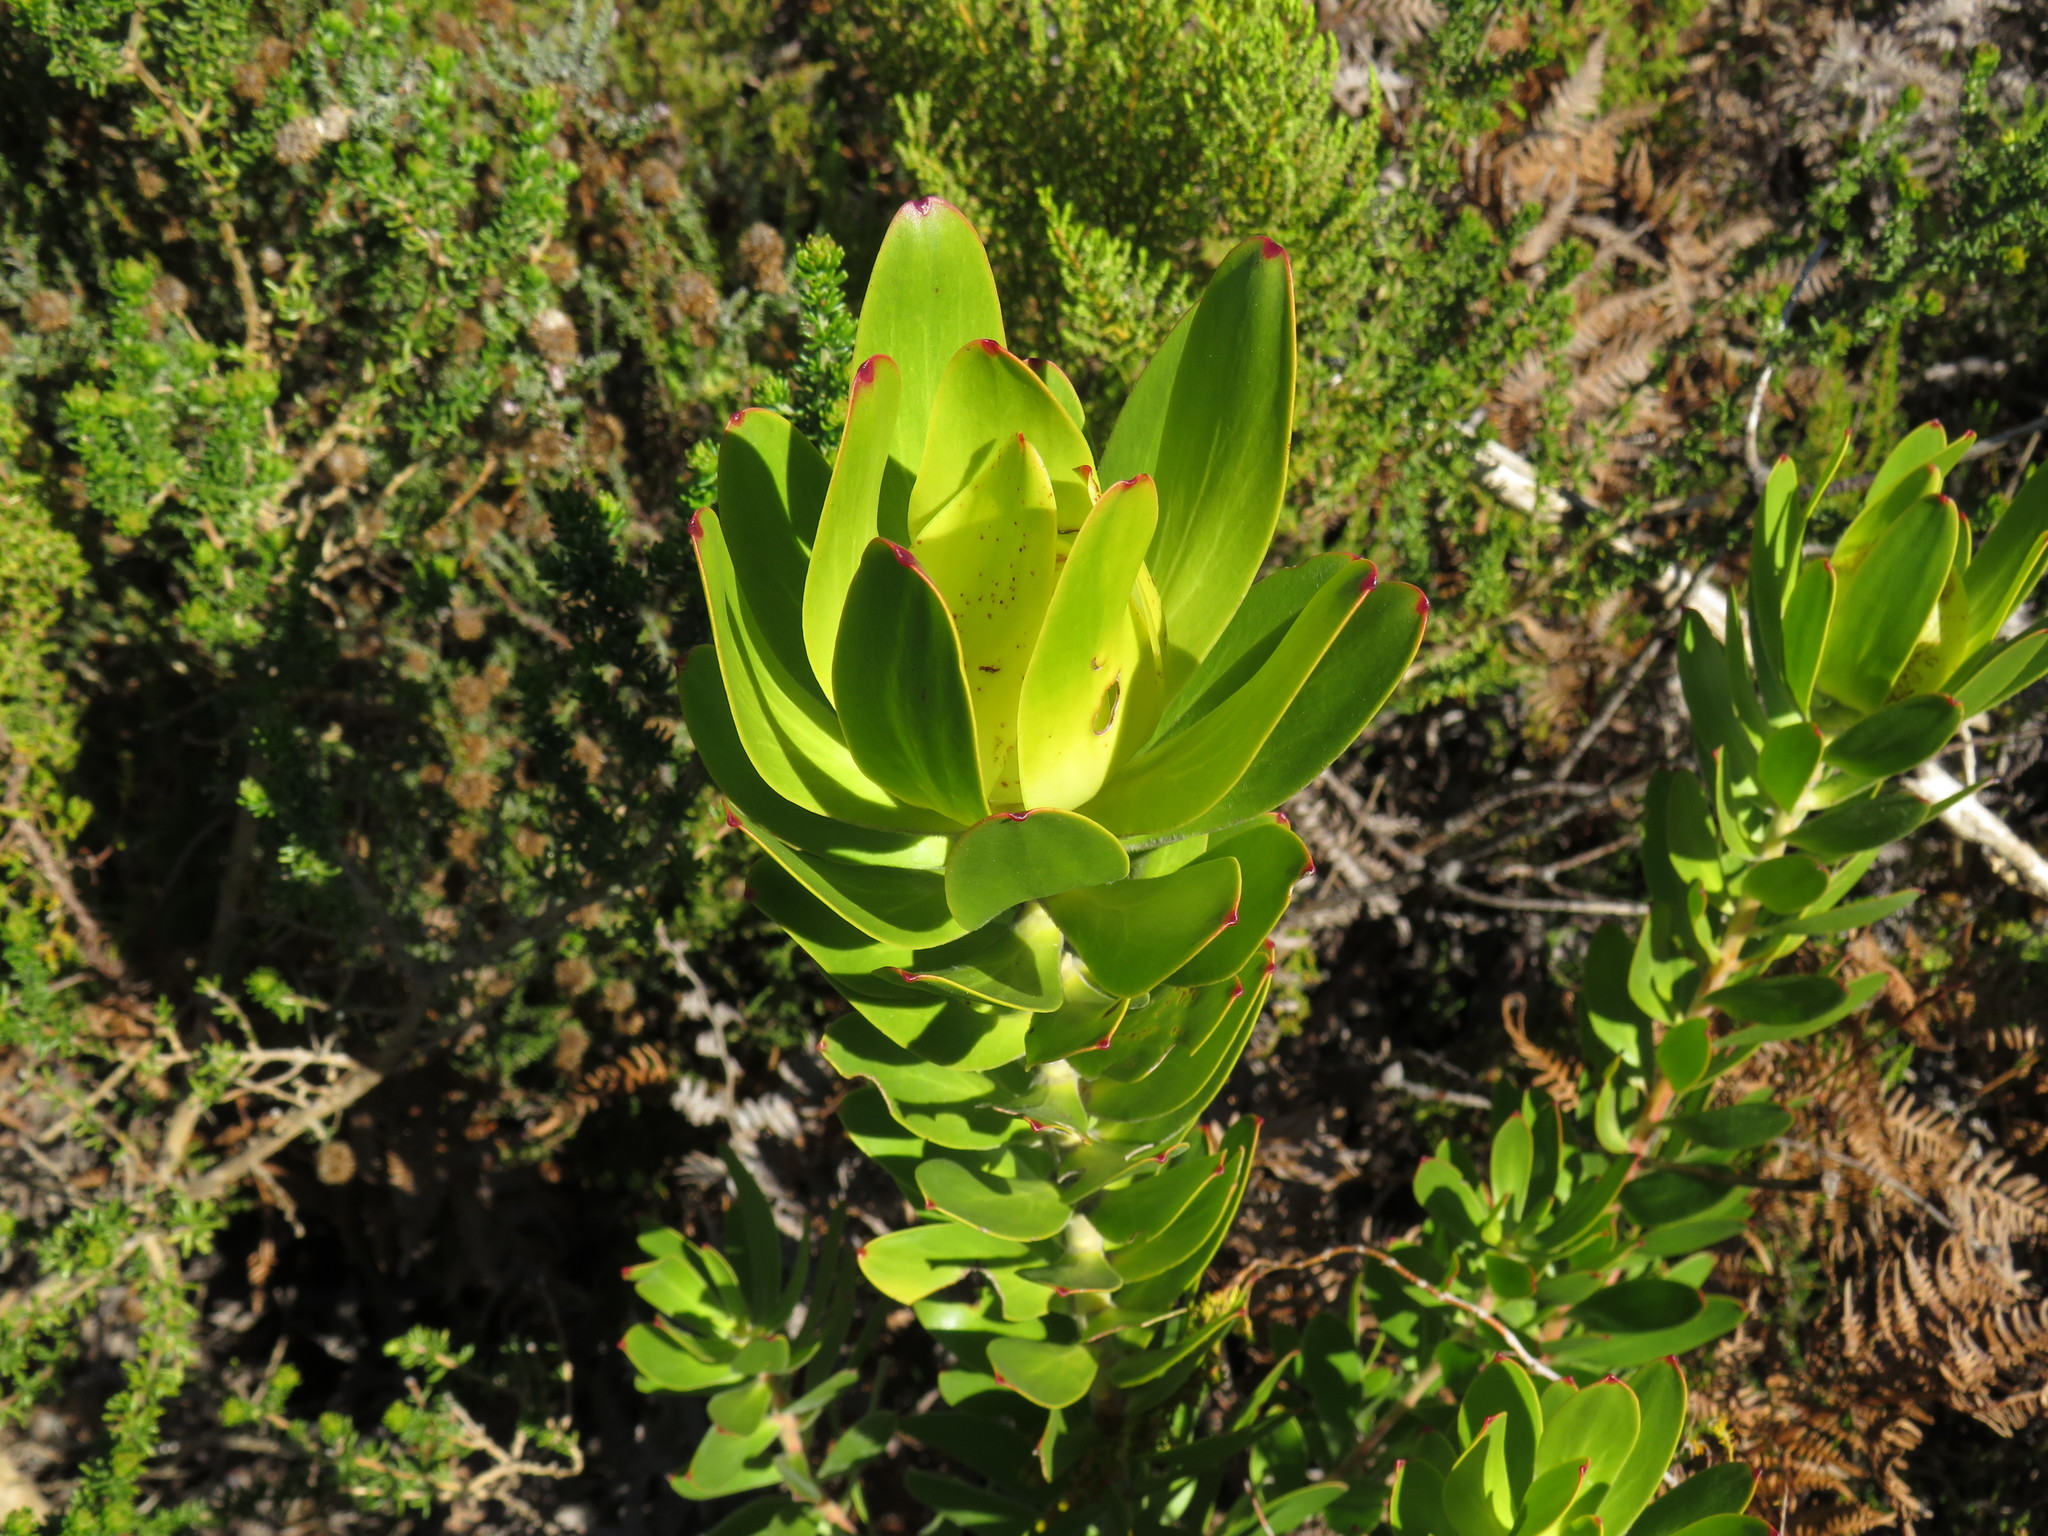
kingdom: Plantae
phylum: Tracheophyta
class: Magnoliopsida
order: Proteales
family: Proteaceae
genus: Leucadendron
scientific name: Leucadendron laureolum
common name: Golden sunshinebush
